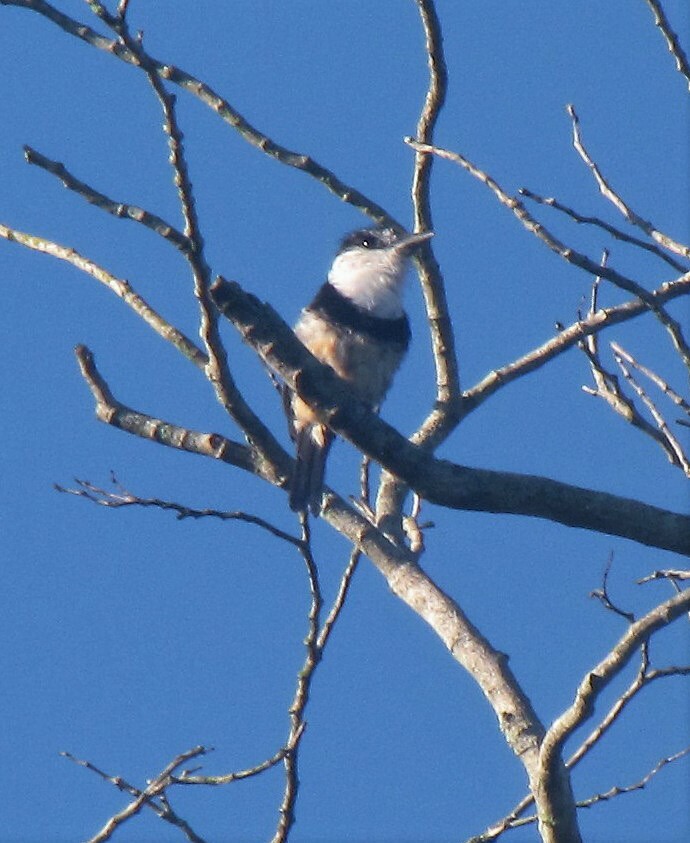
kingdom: Animalia
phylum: Chordata
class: Aves
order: Piciformes
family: Bucconidae
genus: Notharchus
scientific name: Notharchus swainsoni
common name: Buff-bellied puffbird
